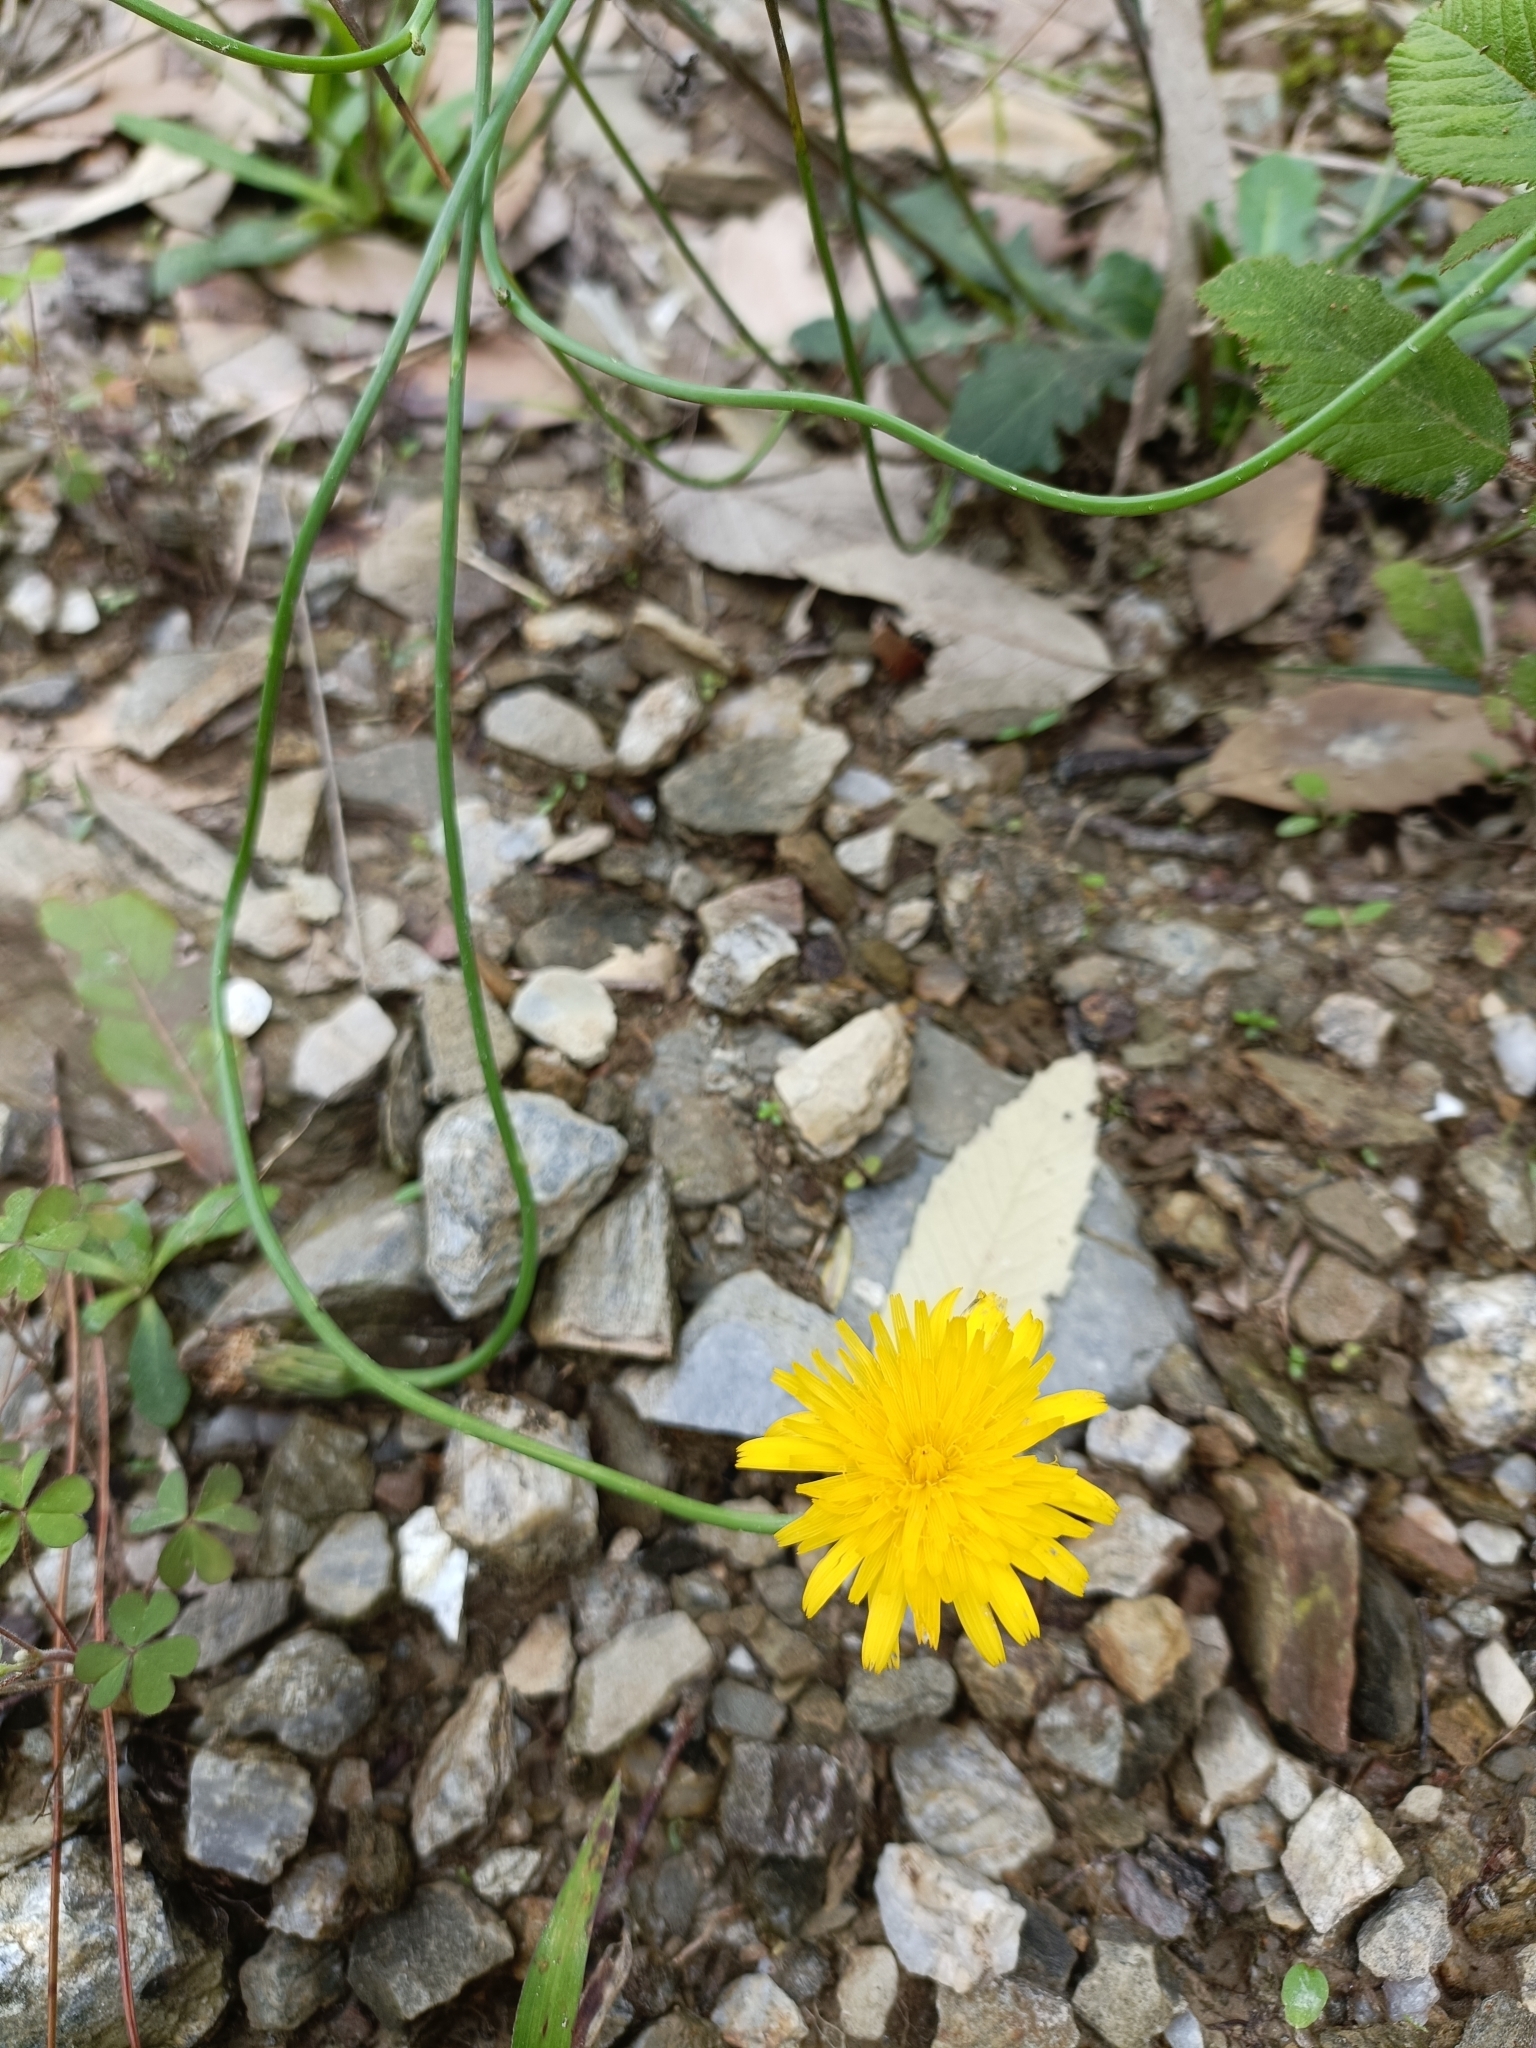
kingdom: Plantae
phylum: Tracheophyta
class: Magnoliopsida
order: Asterales
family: Asteraceae
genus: Hypochaeris
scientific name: Hypochaeris radicata
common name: Flatweed
